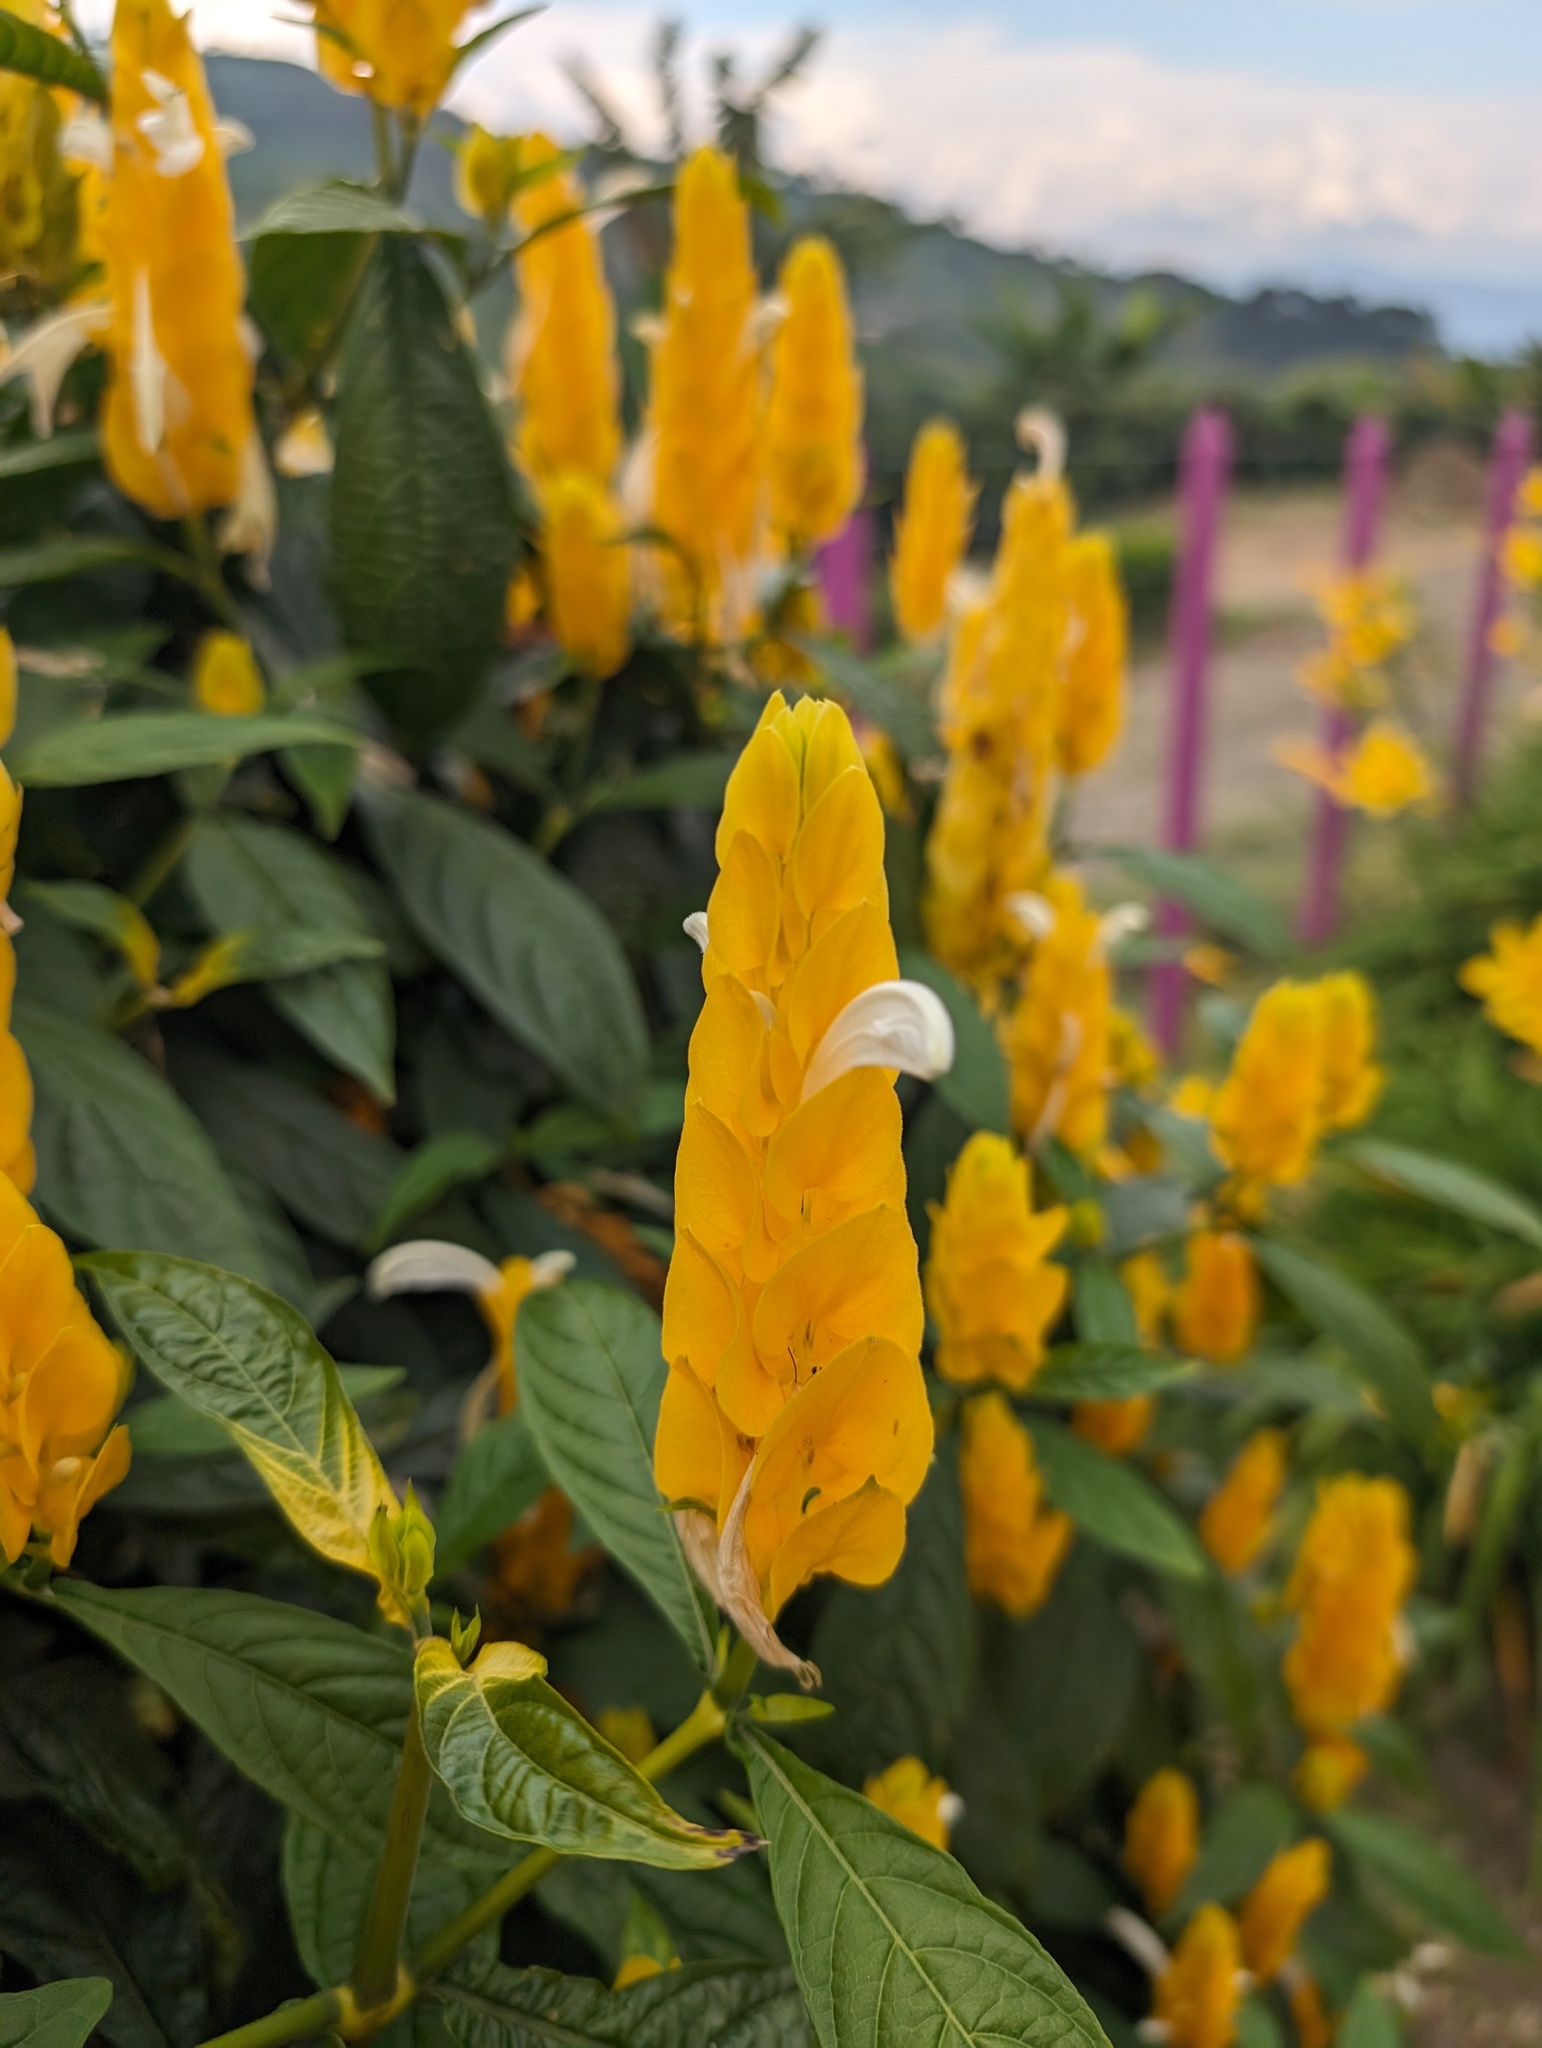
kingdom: Plantae
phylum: Tracheophyta
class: Magnoliopsida
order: Lamiales
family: Acanthaceae
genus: Pachystachys
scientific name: Pachystachys lutea
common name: Golden shrimp-plant
